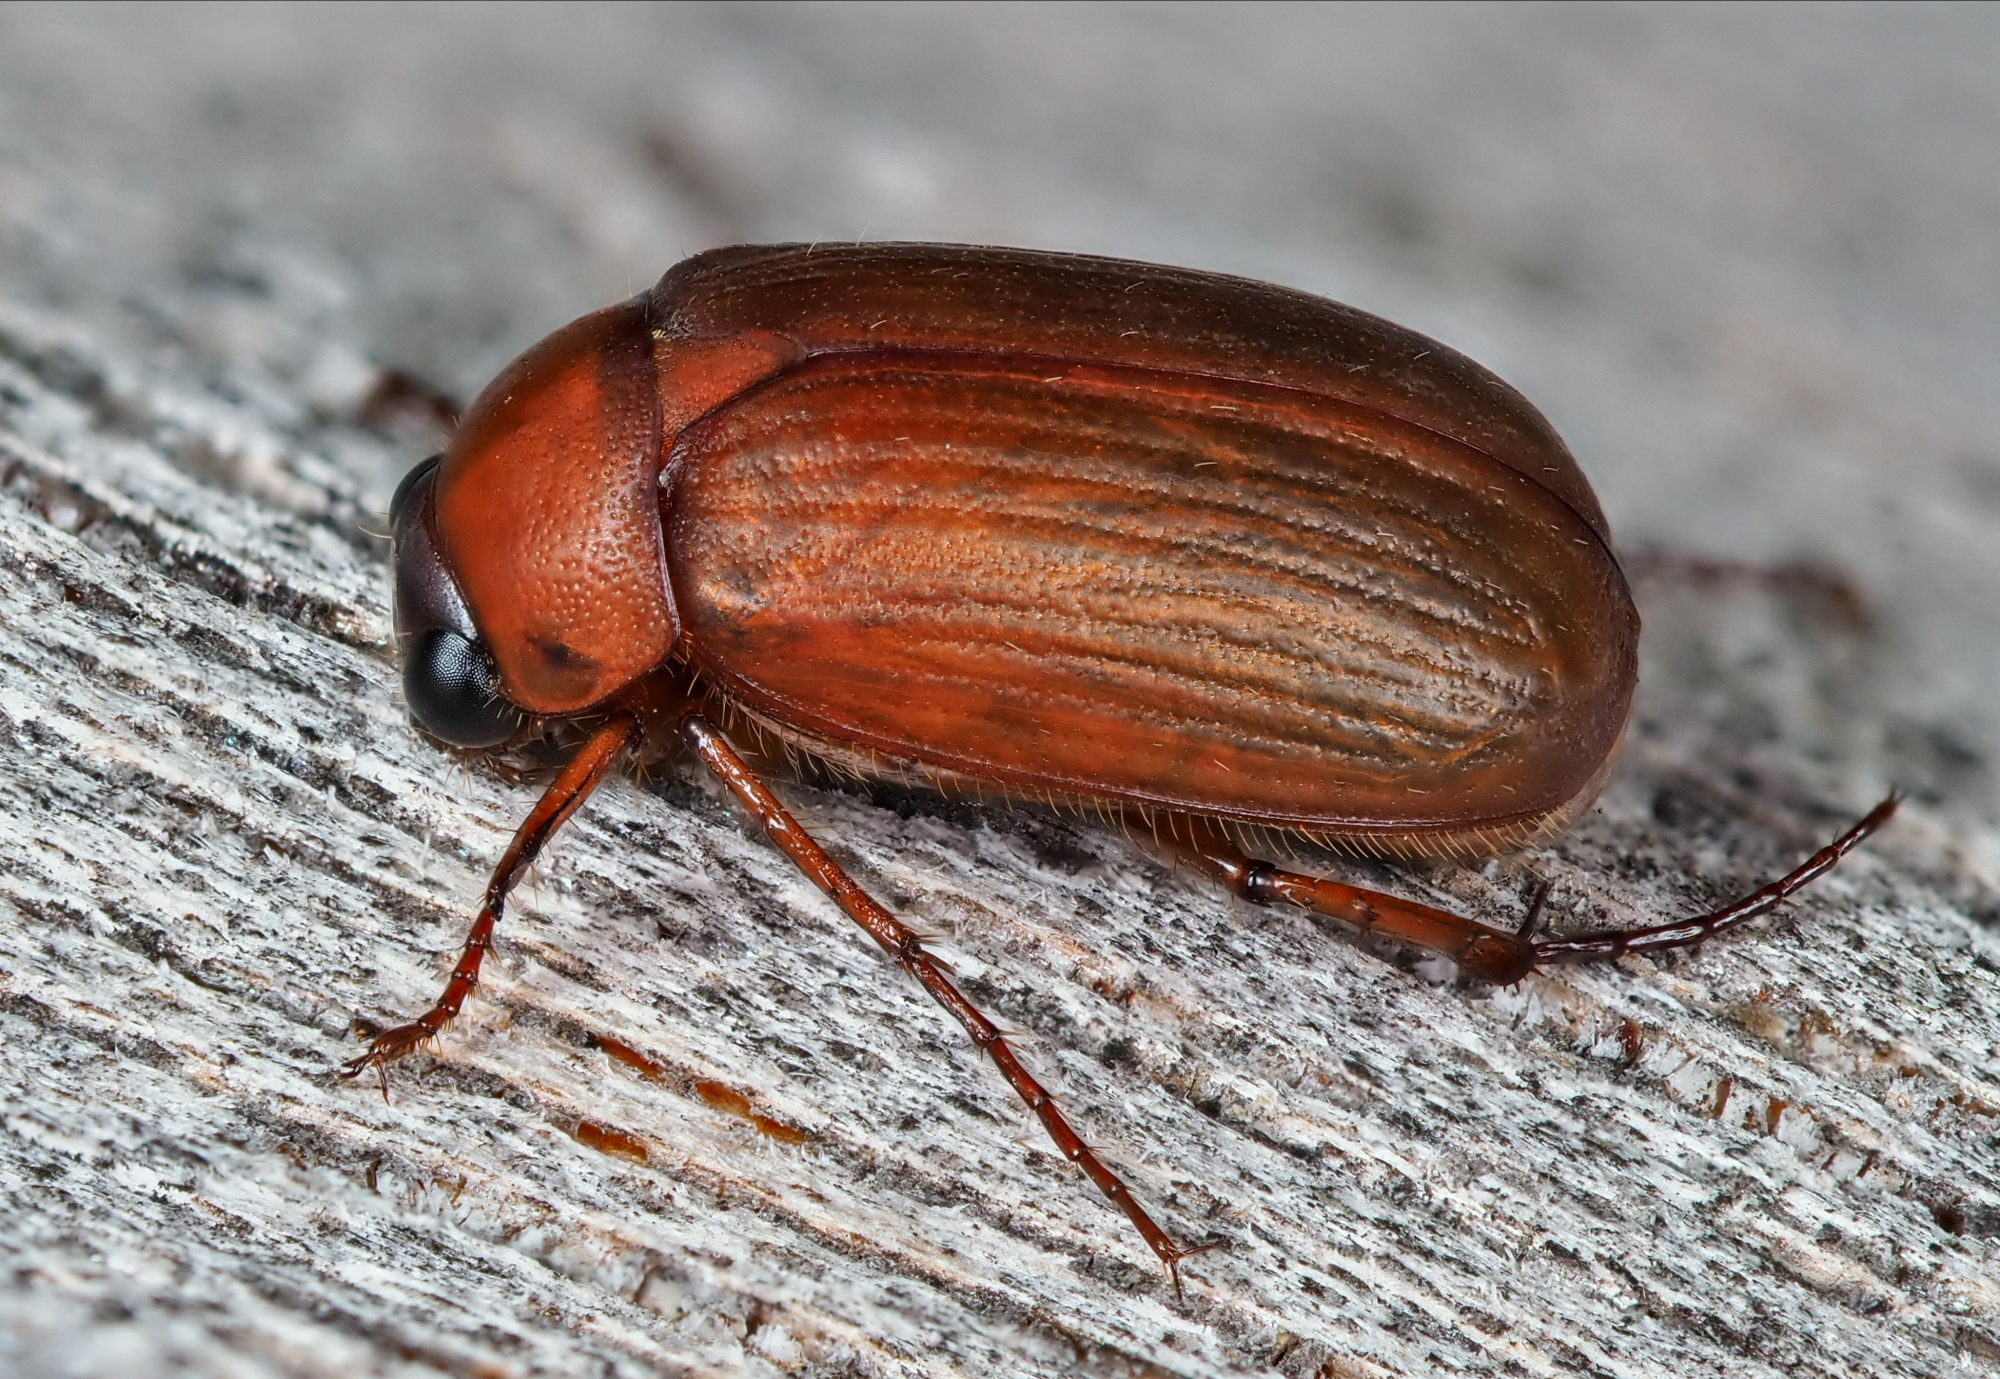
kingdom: Animalia
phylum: Arthropoda
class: Insecta
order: Coleoptera
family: Scarabaeidae
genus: Serica
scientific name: Serica brunnea
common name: Brown chafer
